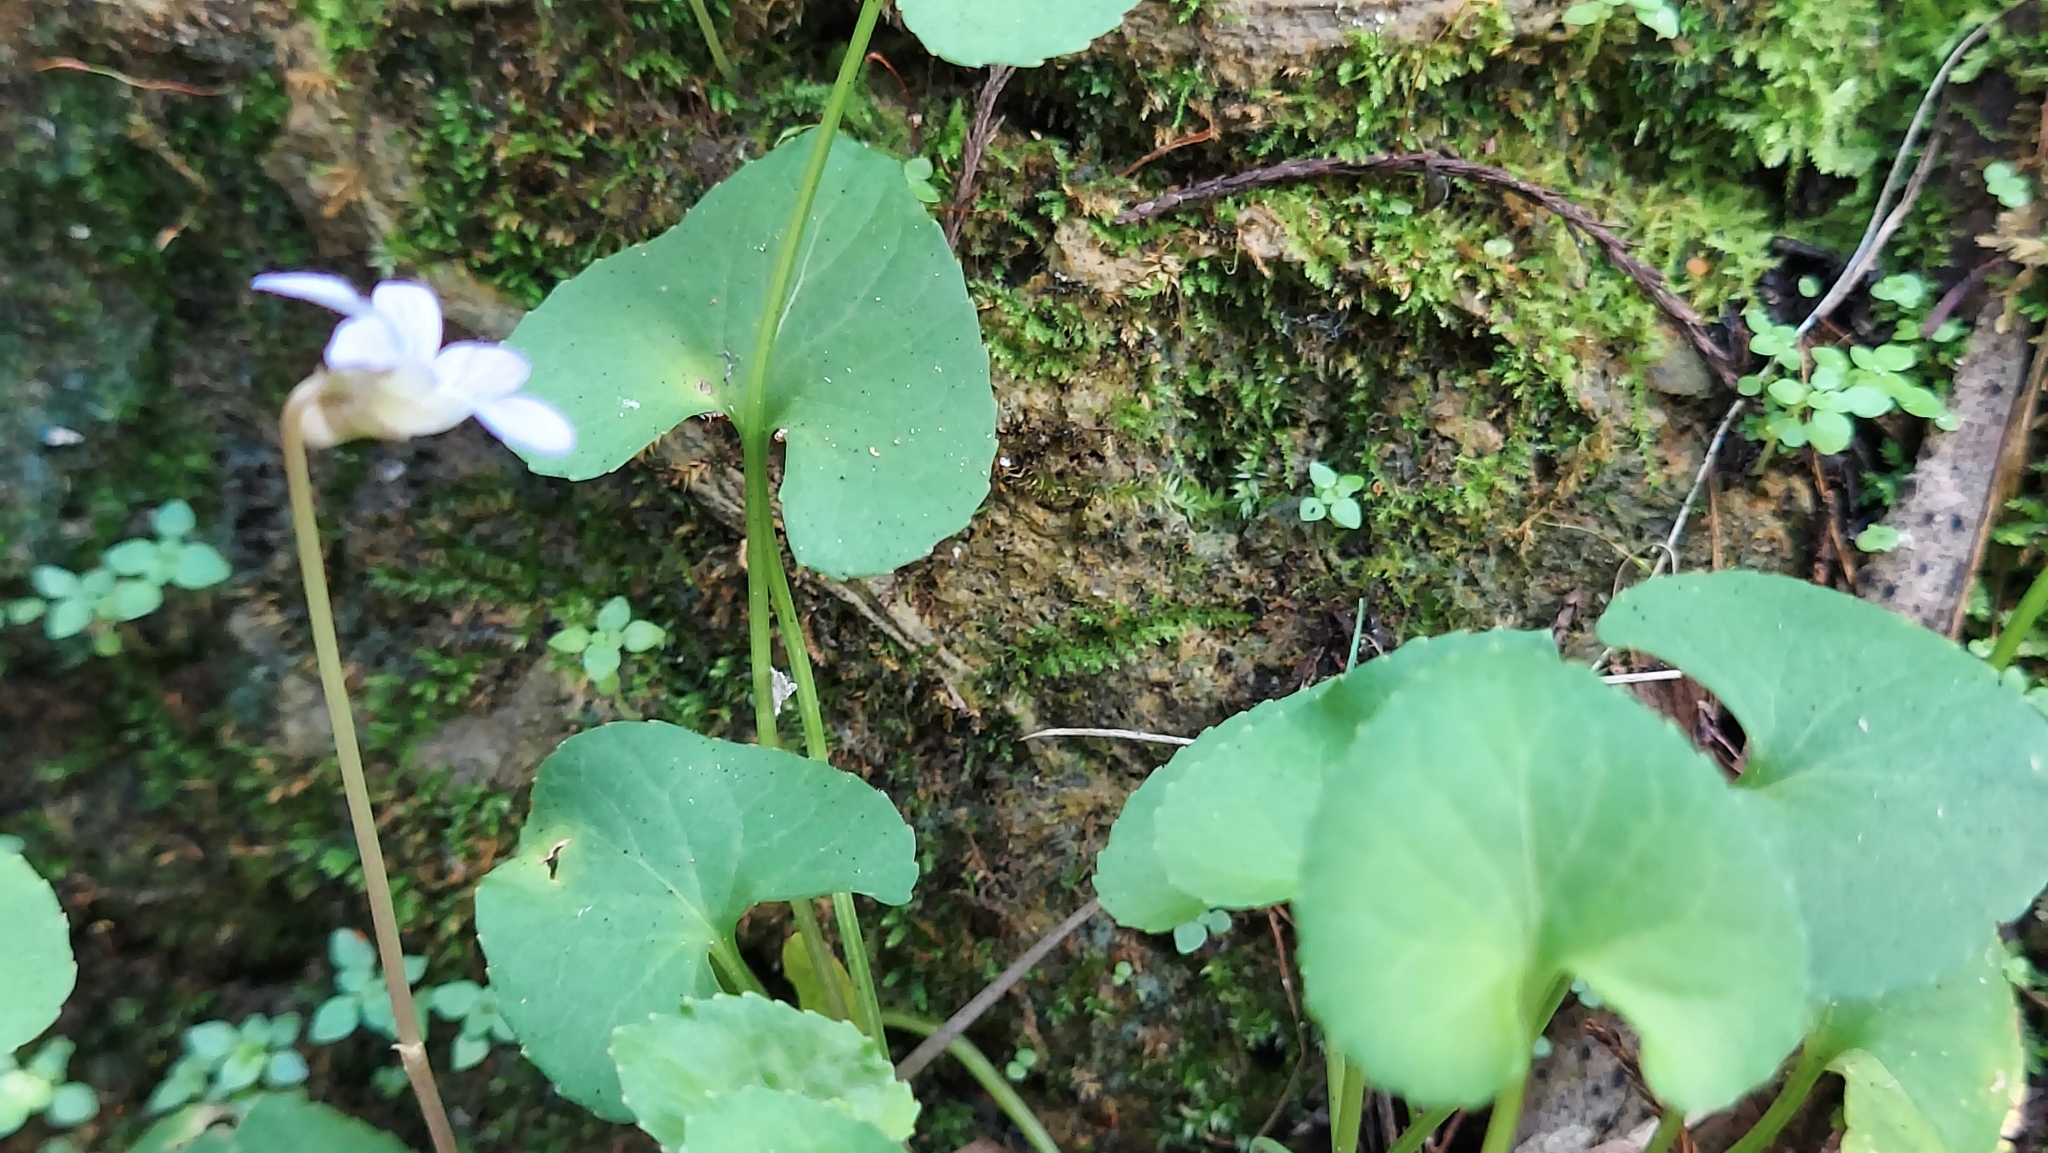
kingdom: Plantae
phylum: Tracheophyta
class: Magnoliopsida
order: Malpighiales
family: Violaceae
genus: Viola
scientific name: Viola floridana
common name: Florida violet
